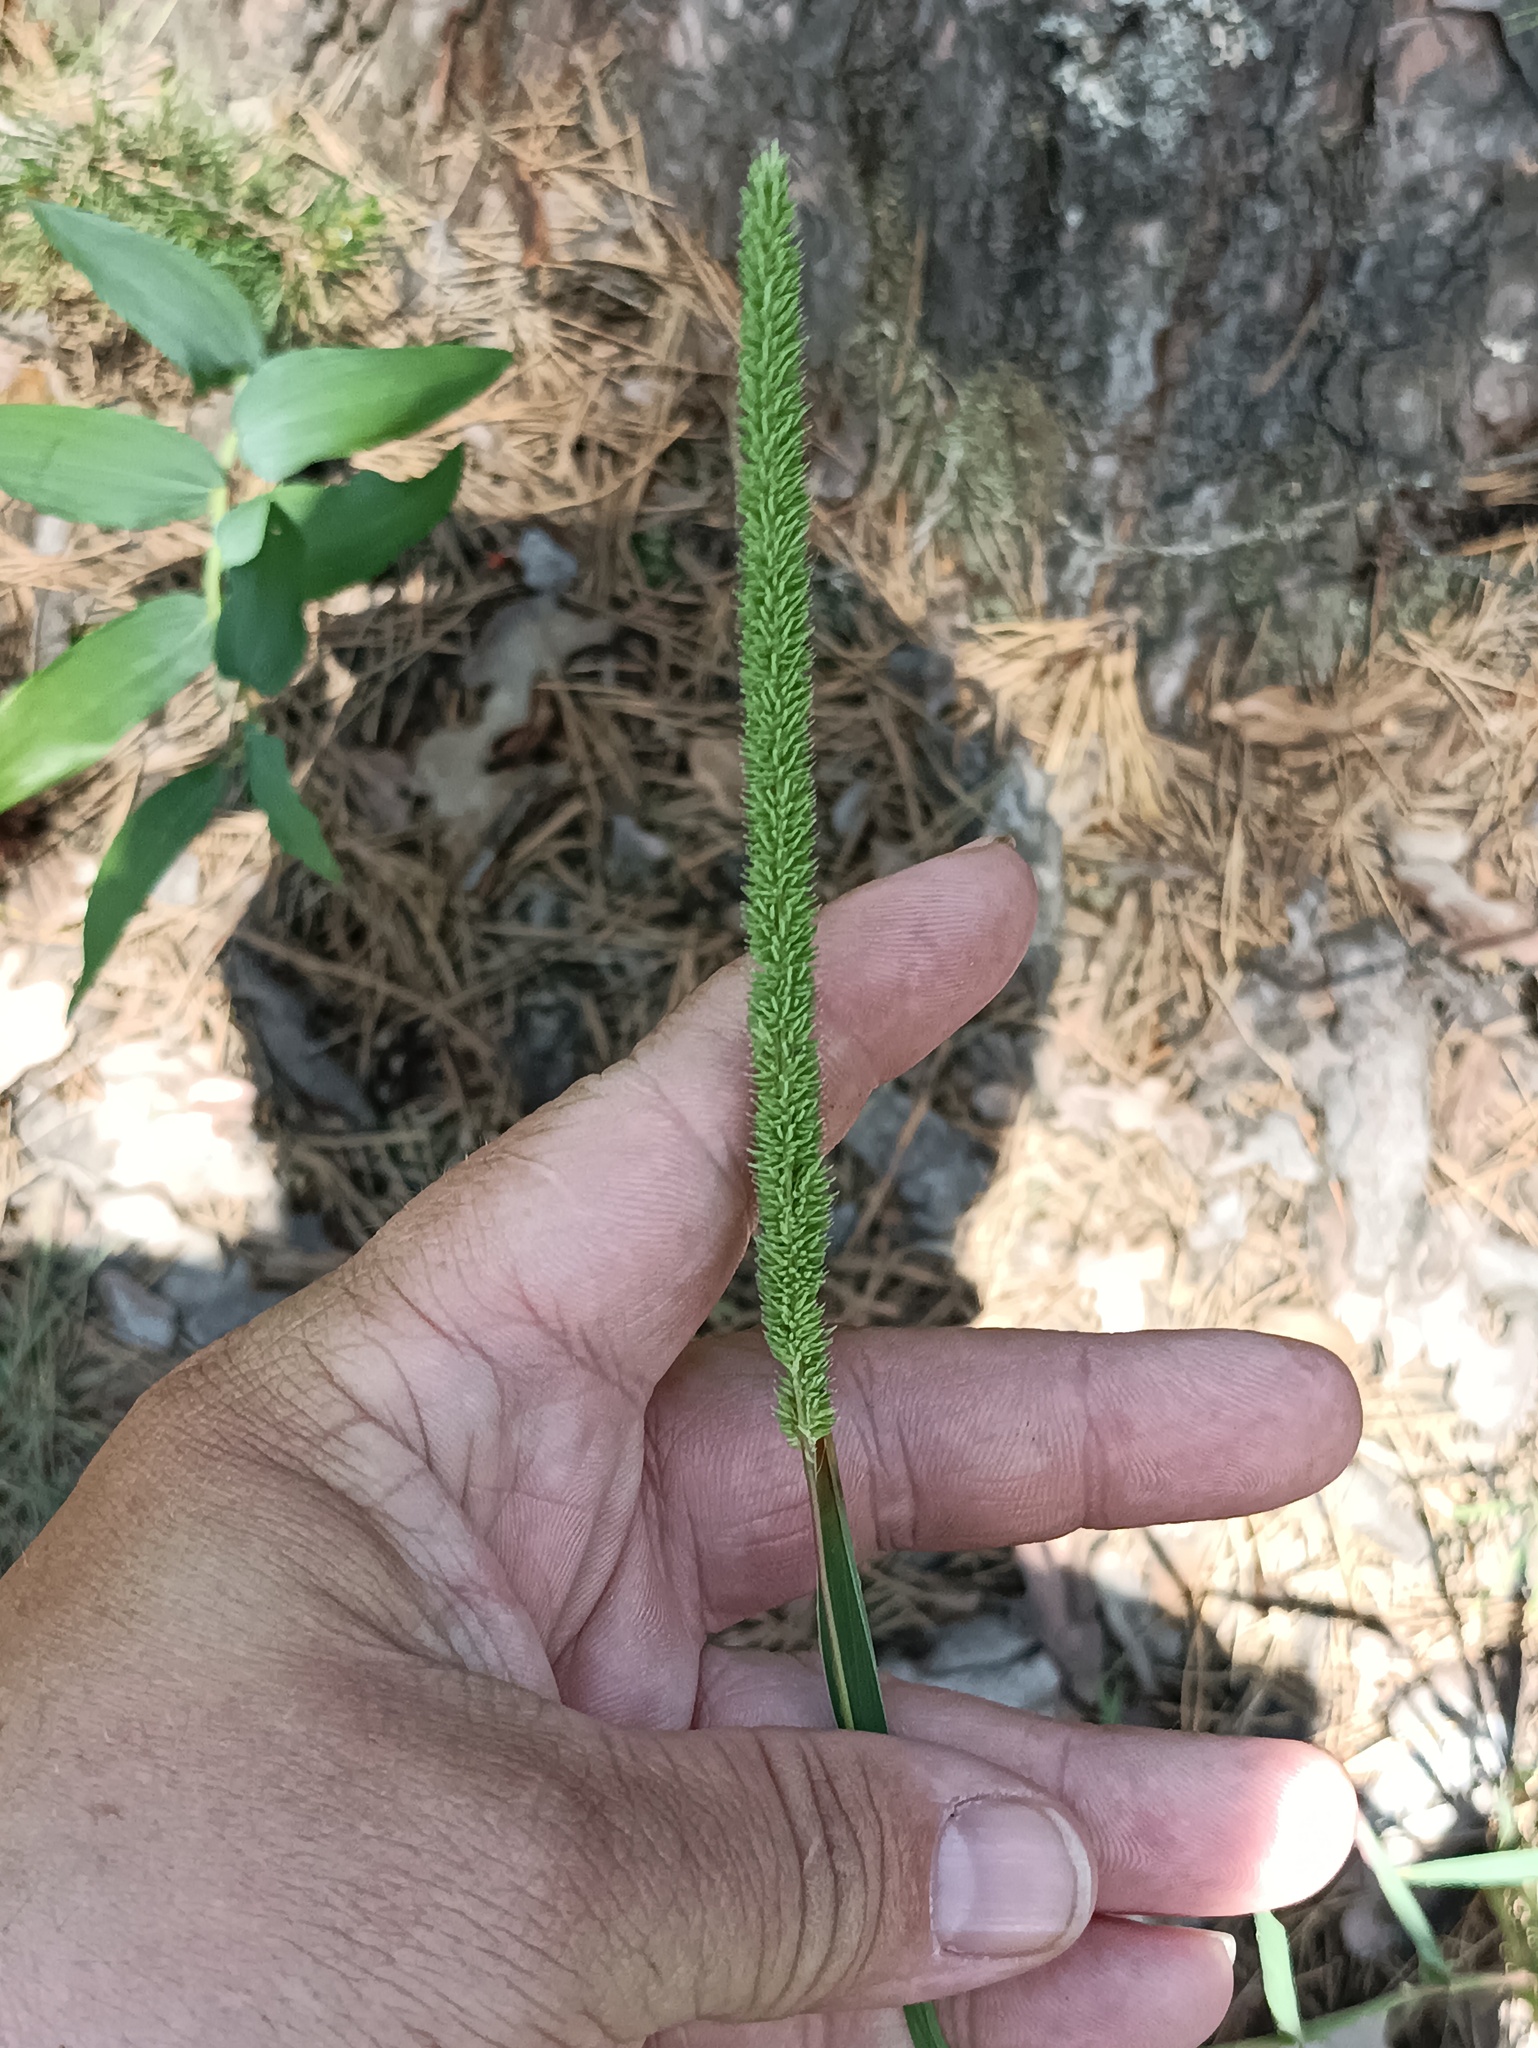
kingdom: Plantae
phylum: Tracheophyta
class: Liliopsida
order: Poales
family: Poaceae
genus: Phleum
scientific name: Phleum phleoides
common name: Purple-stem cat's-tail
